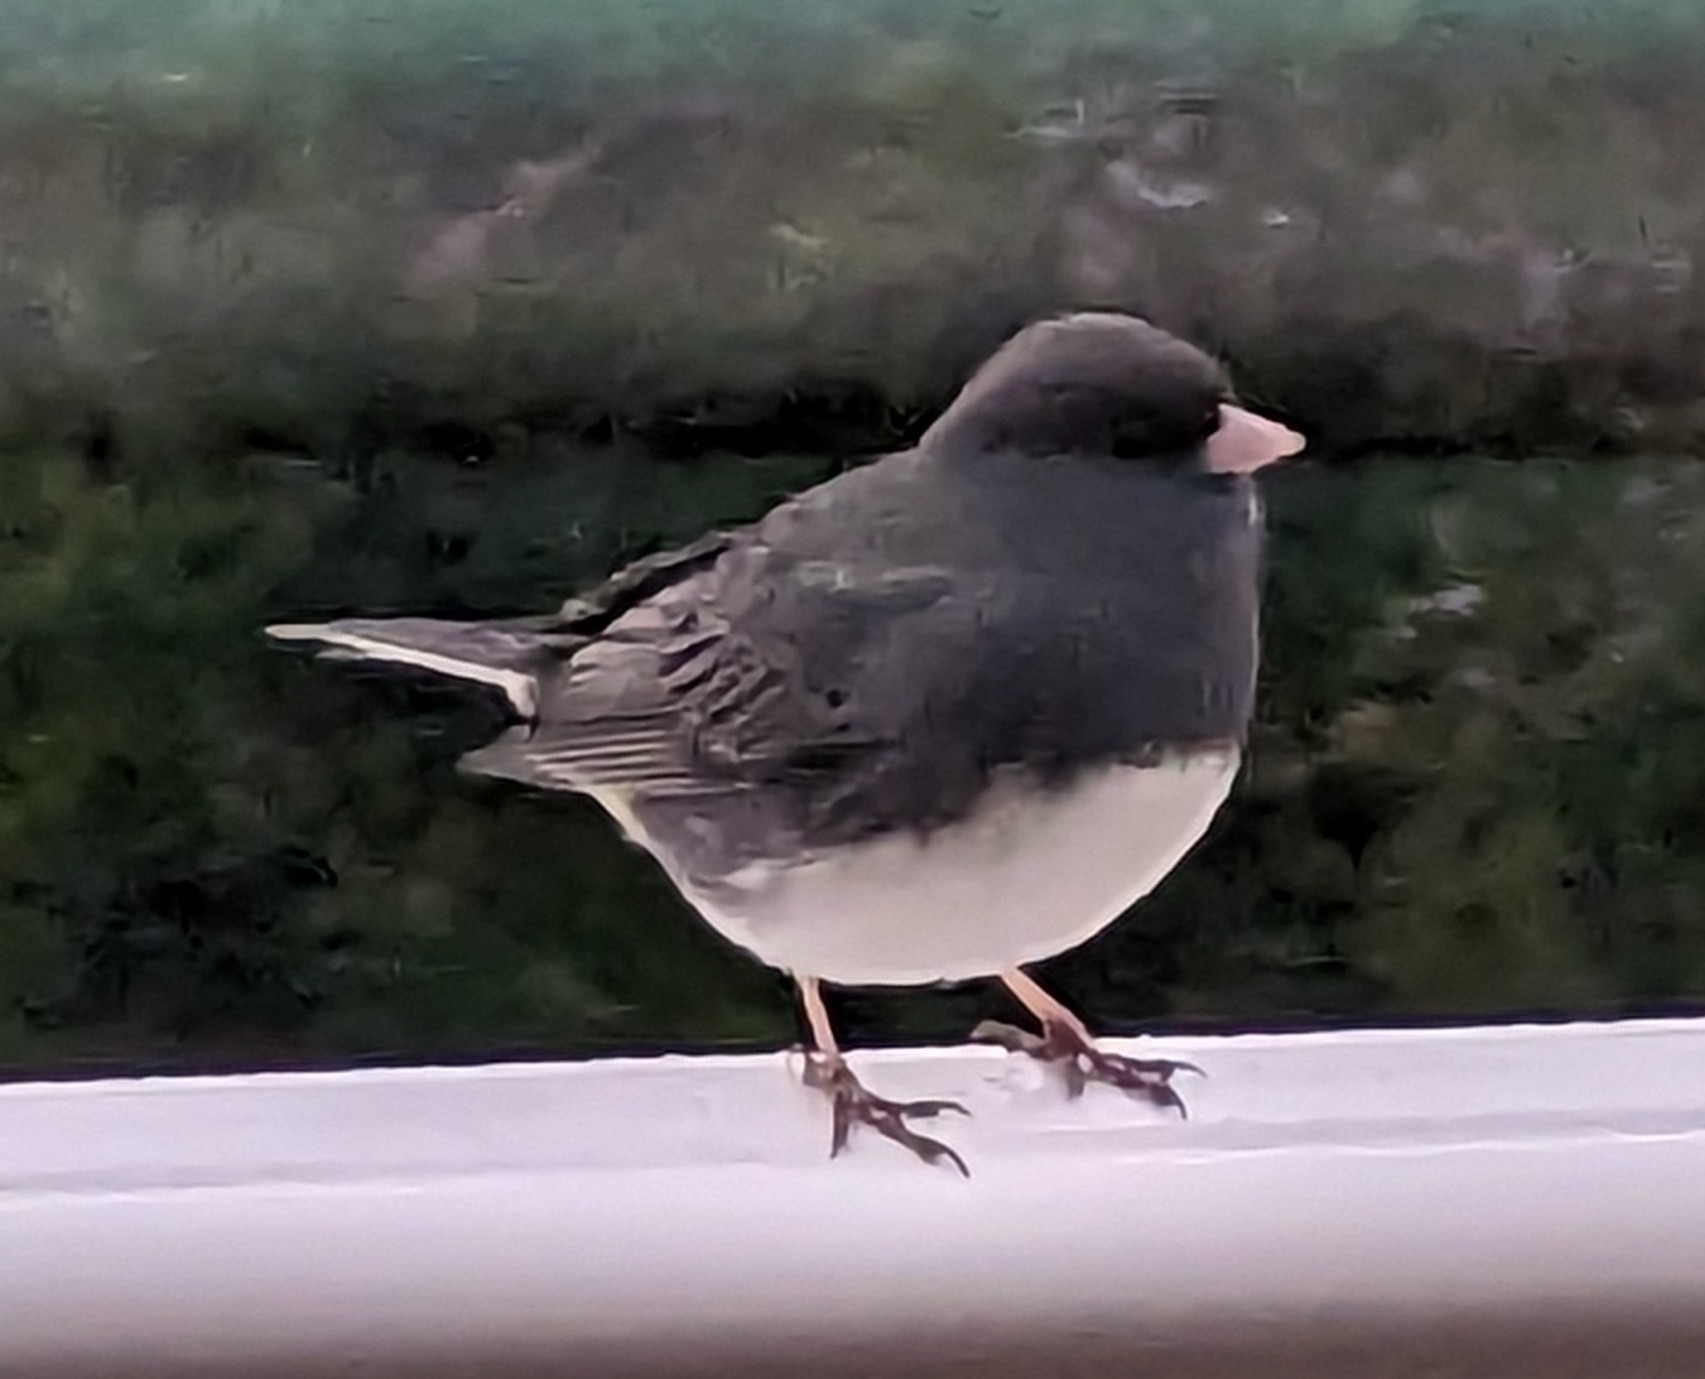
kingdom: Animalia
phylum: Chordata
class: Aves
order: Passeriformes
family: Passerellidae
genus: Junco
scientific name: Junco hyemalis
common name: Dark-eyed junco
